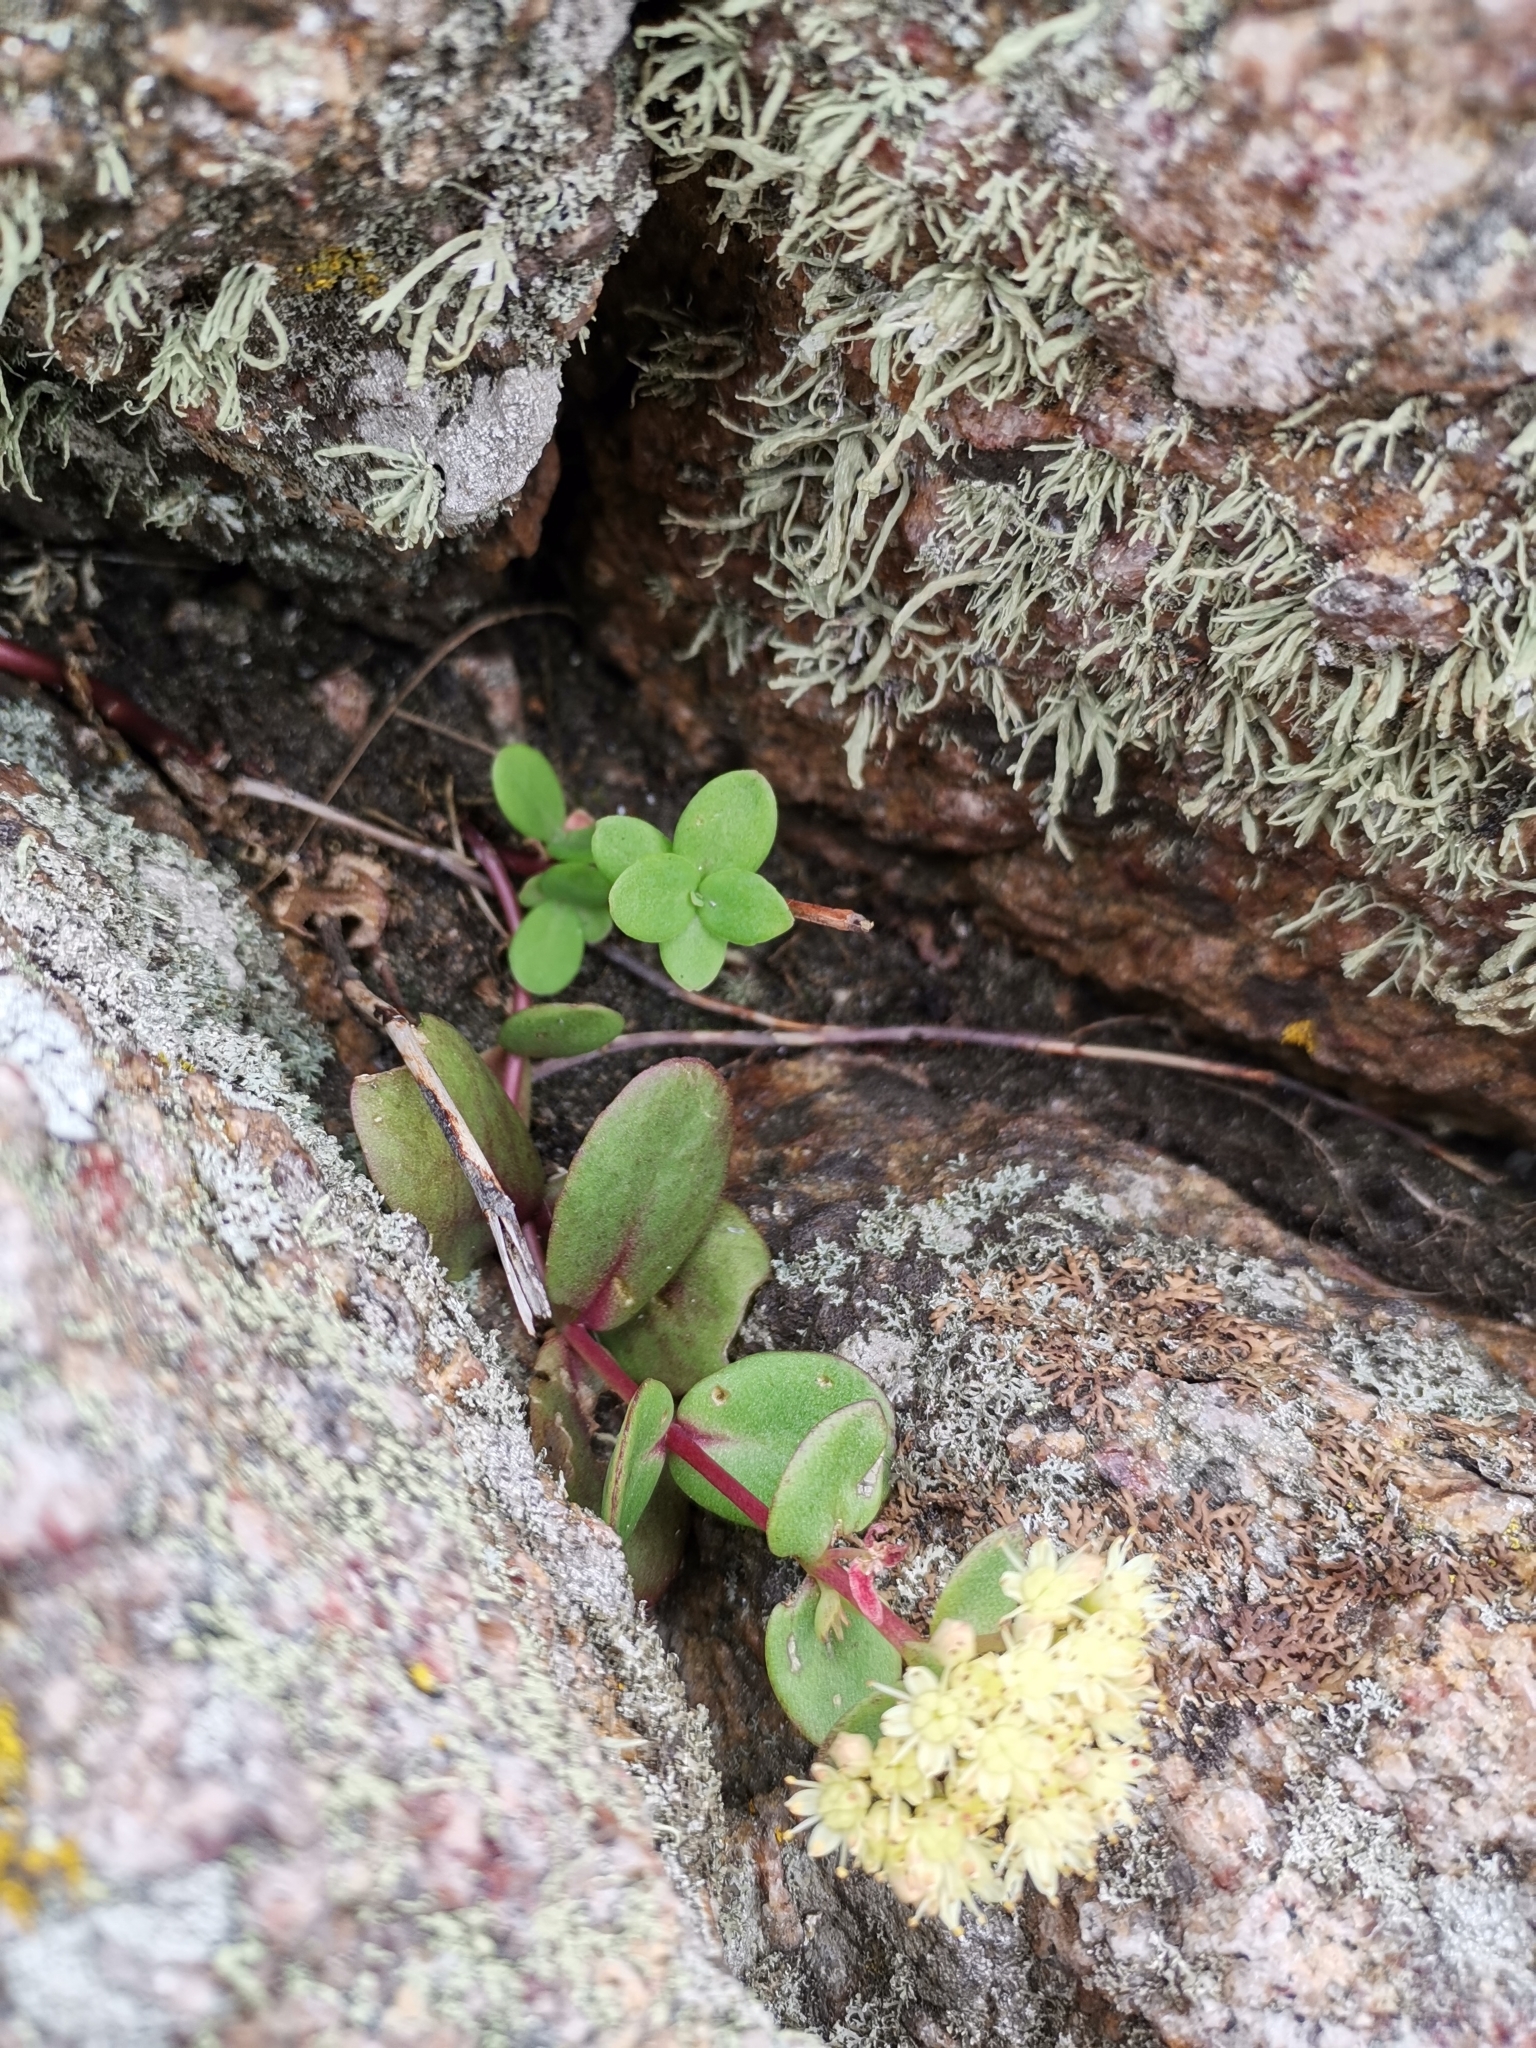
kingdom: Plantae
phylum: Tracheophyta
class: Magnoliopsida
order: Saxifragales
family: Crassulaceae
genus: Hylotelephium
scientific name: Hylotelephium maximum
